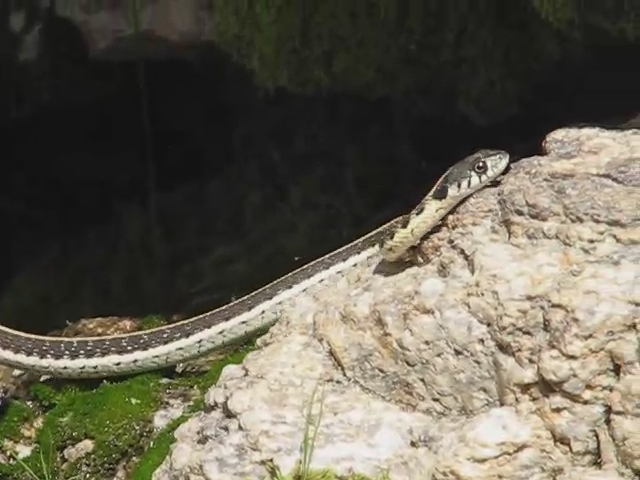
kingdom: Animalia
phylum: Chordata
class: Squamata
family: Colubridae
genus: Thamnophis
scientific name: Thamnophis cyrtopsis
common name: Black-necked gartersnake
